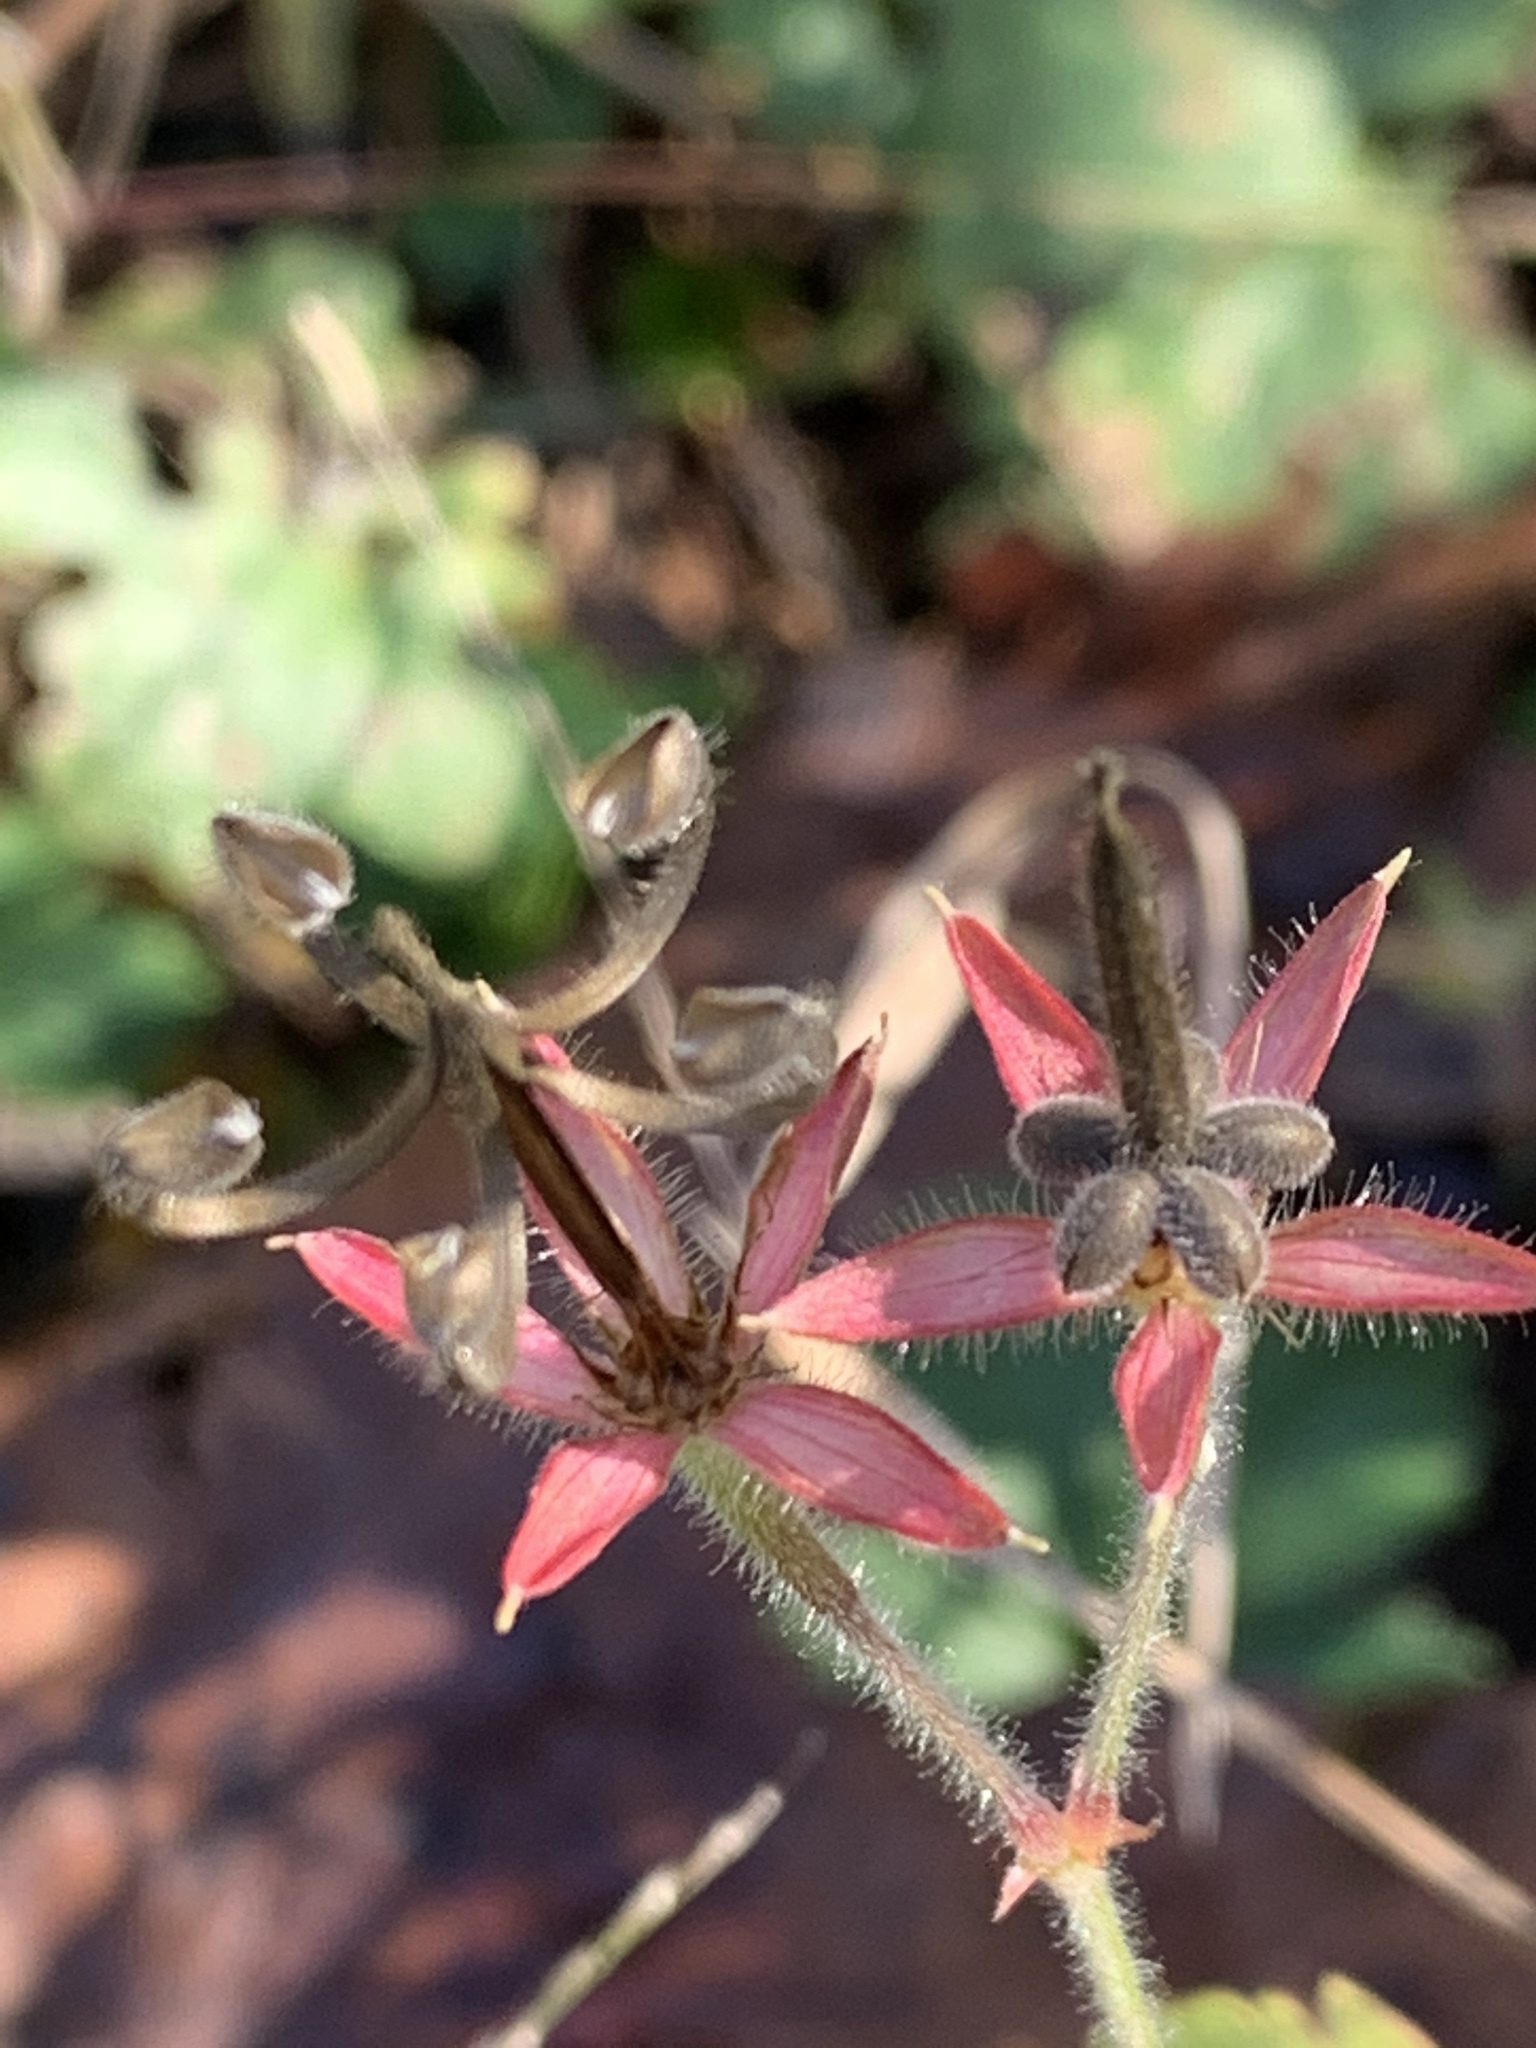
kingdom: Plantae
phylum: Tracheophyta
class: Magnoliopsida
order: Geraniales
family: Geraniaceae
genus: Geranium
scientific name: Geranium thunbergii
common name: Dewdrop crane's-bill
